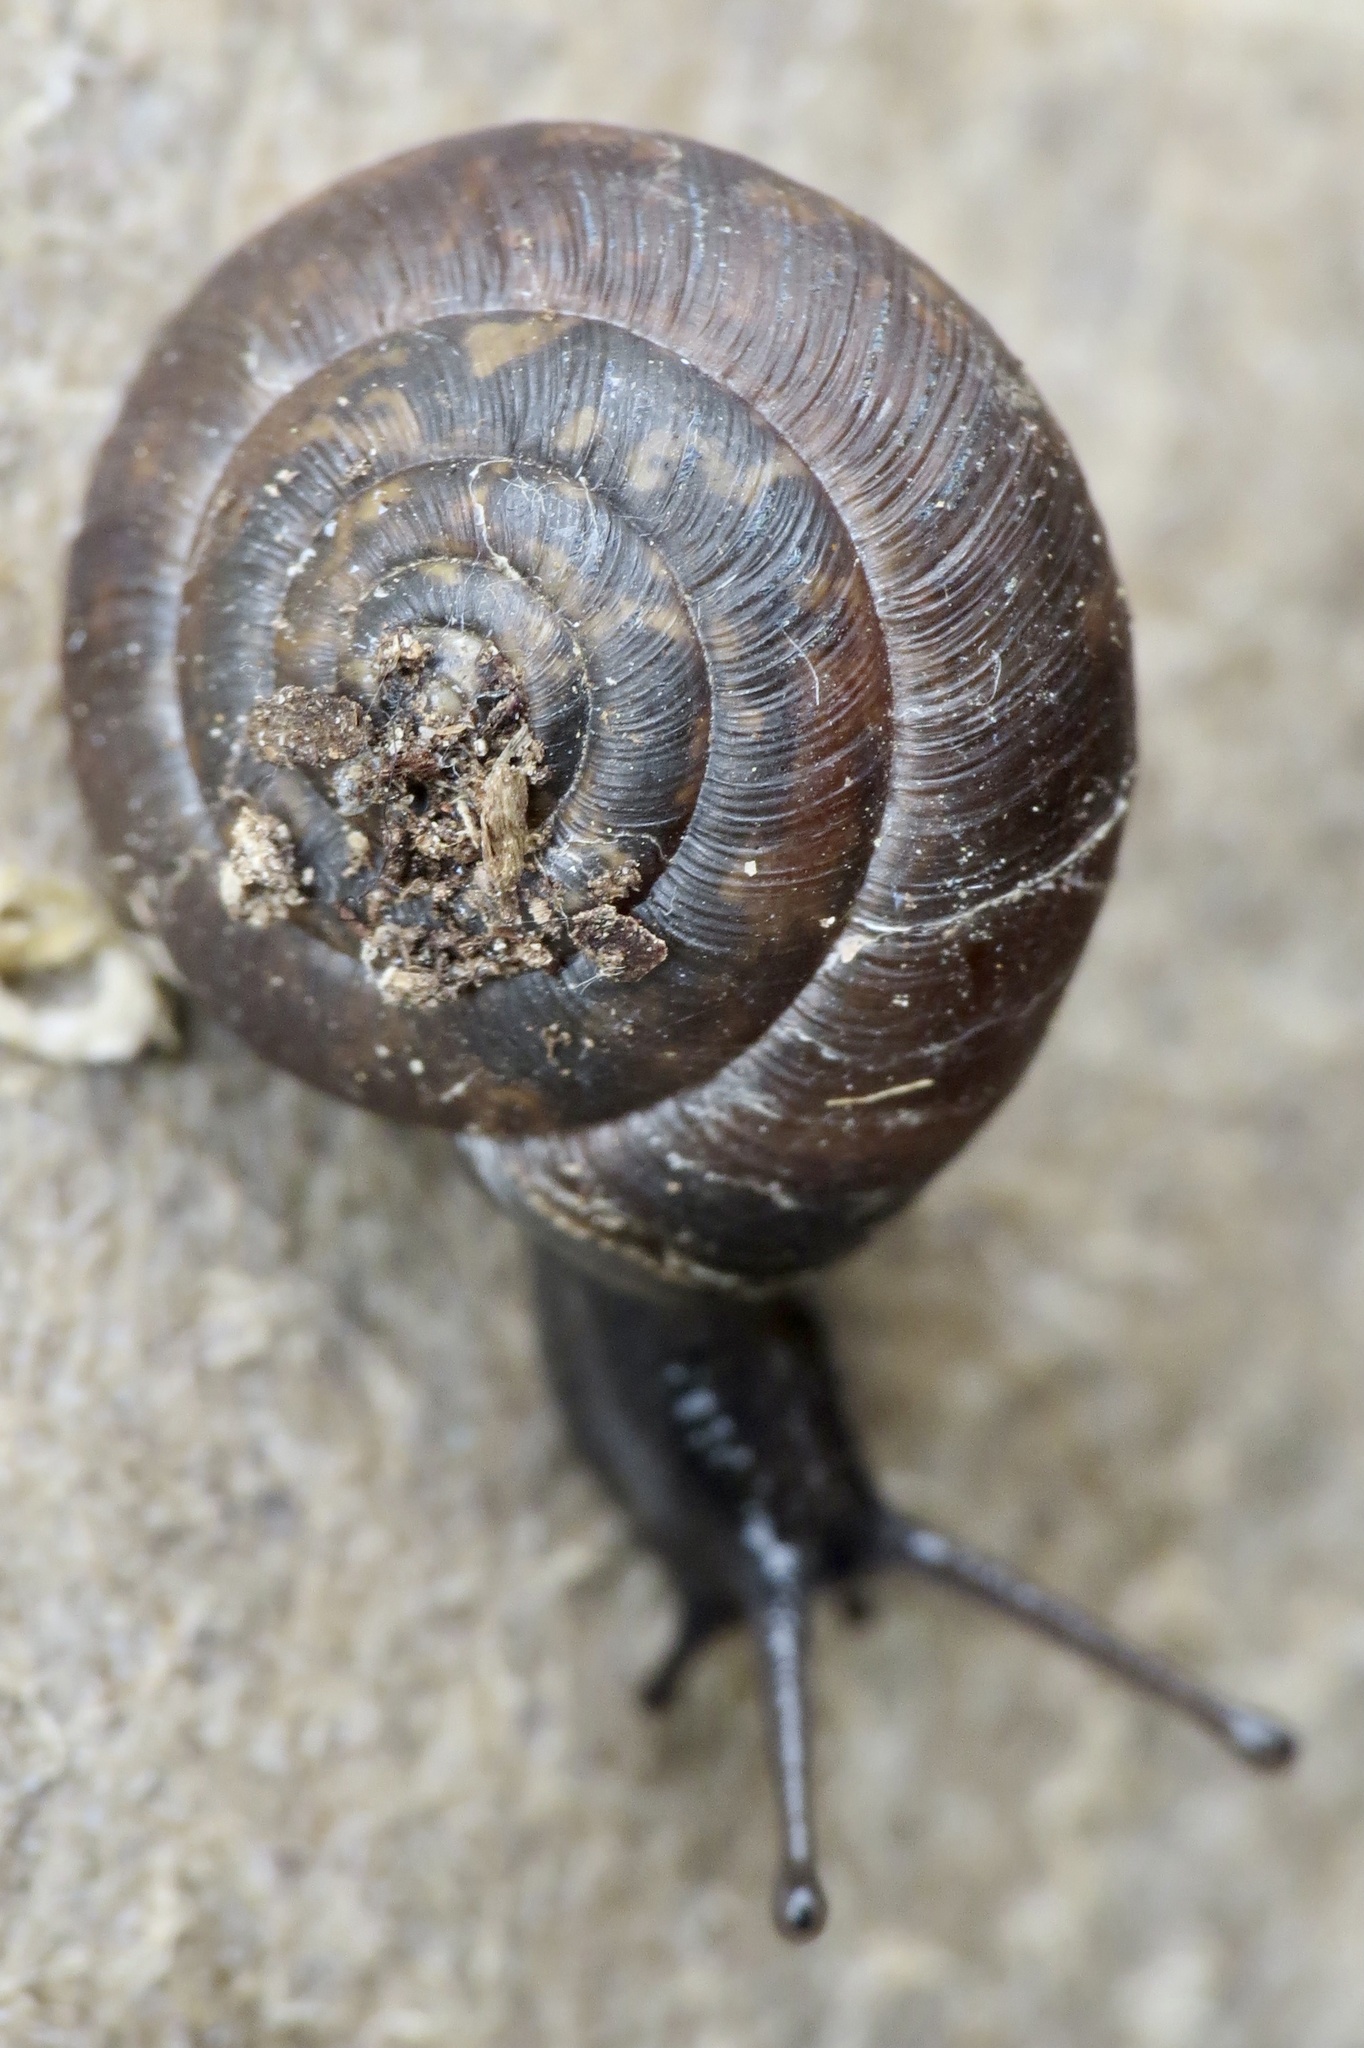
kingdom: Animalia
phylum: Mollusca
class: Gastropoda
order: Stylommatophora
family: Hygromiidae
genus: Trochulus
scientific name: Trochulus striolatus
